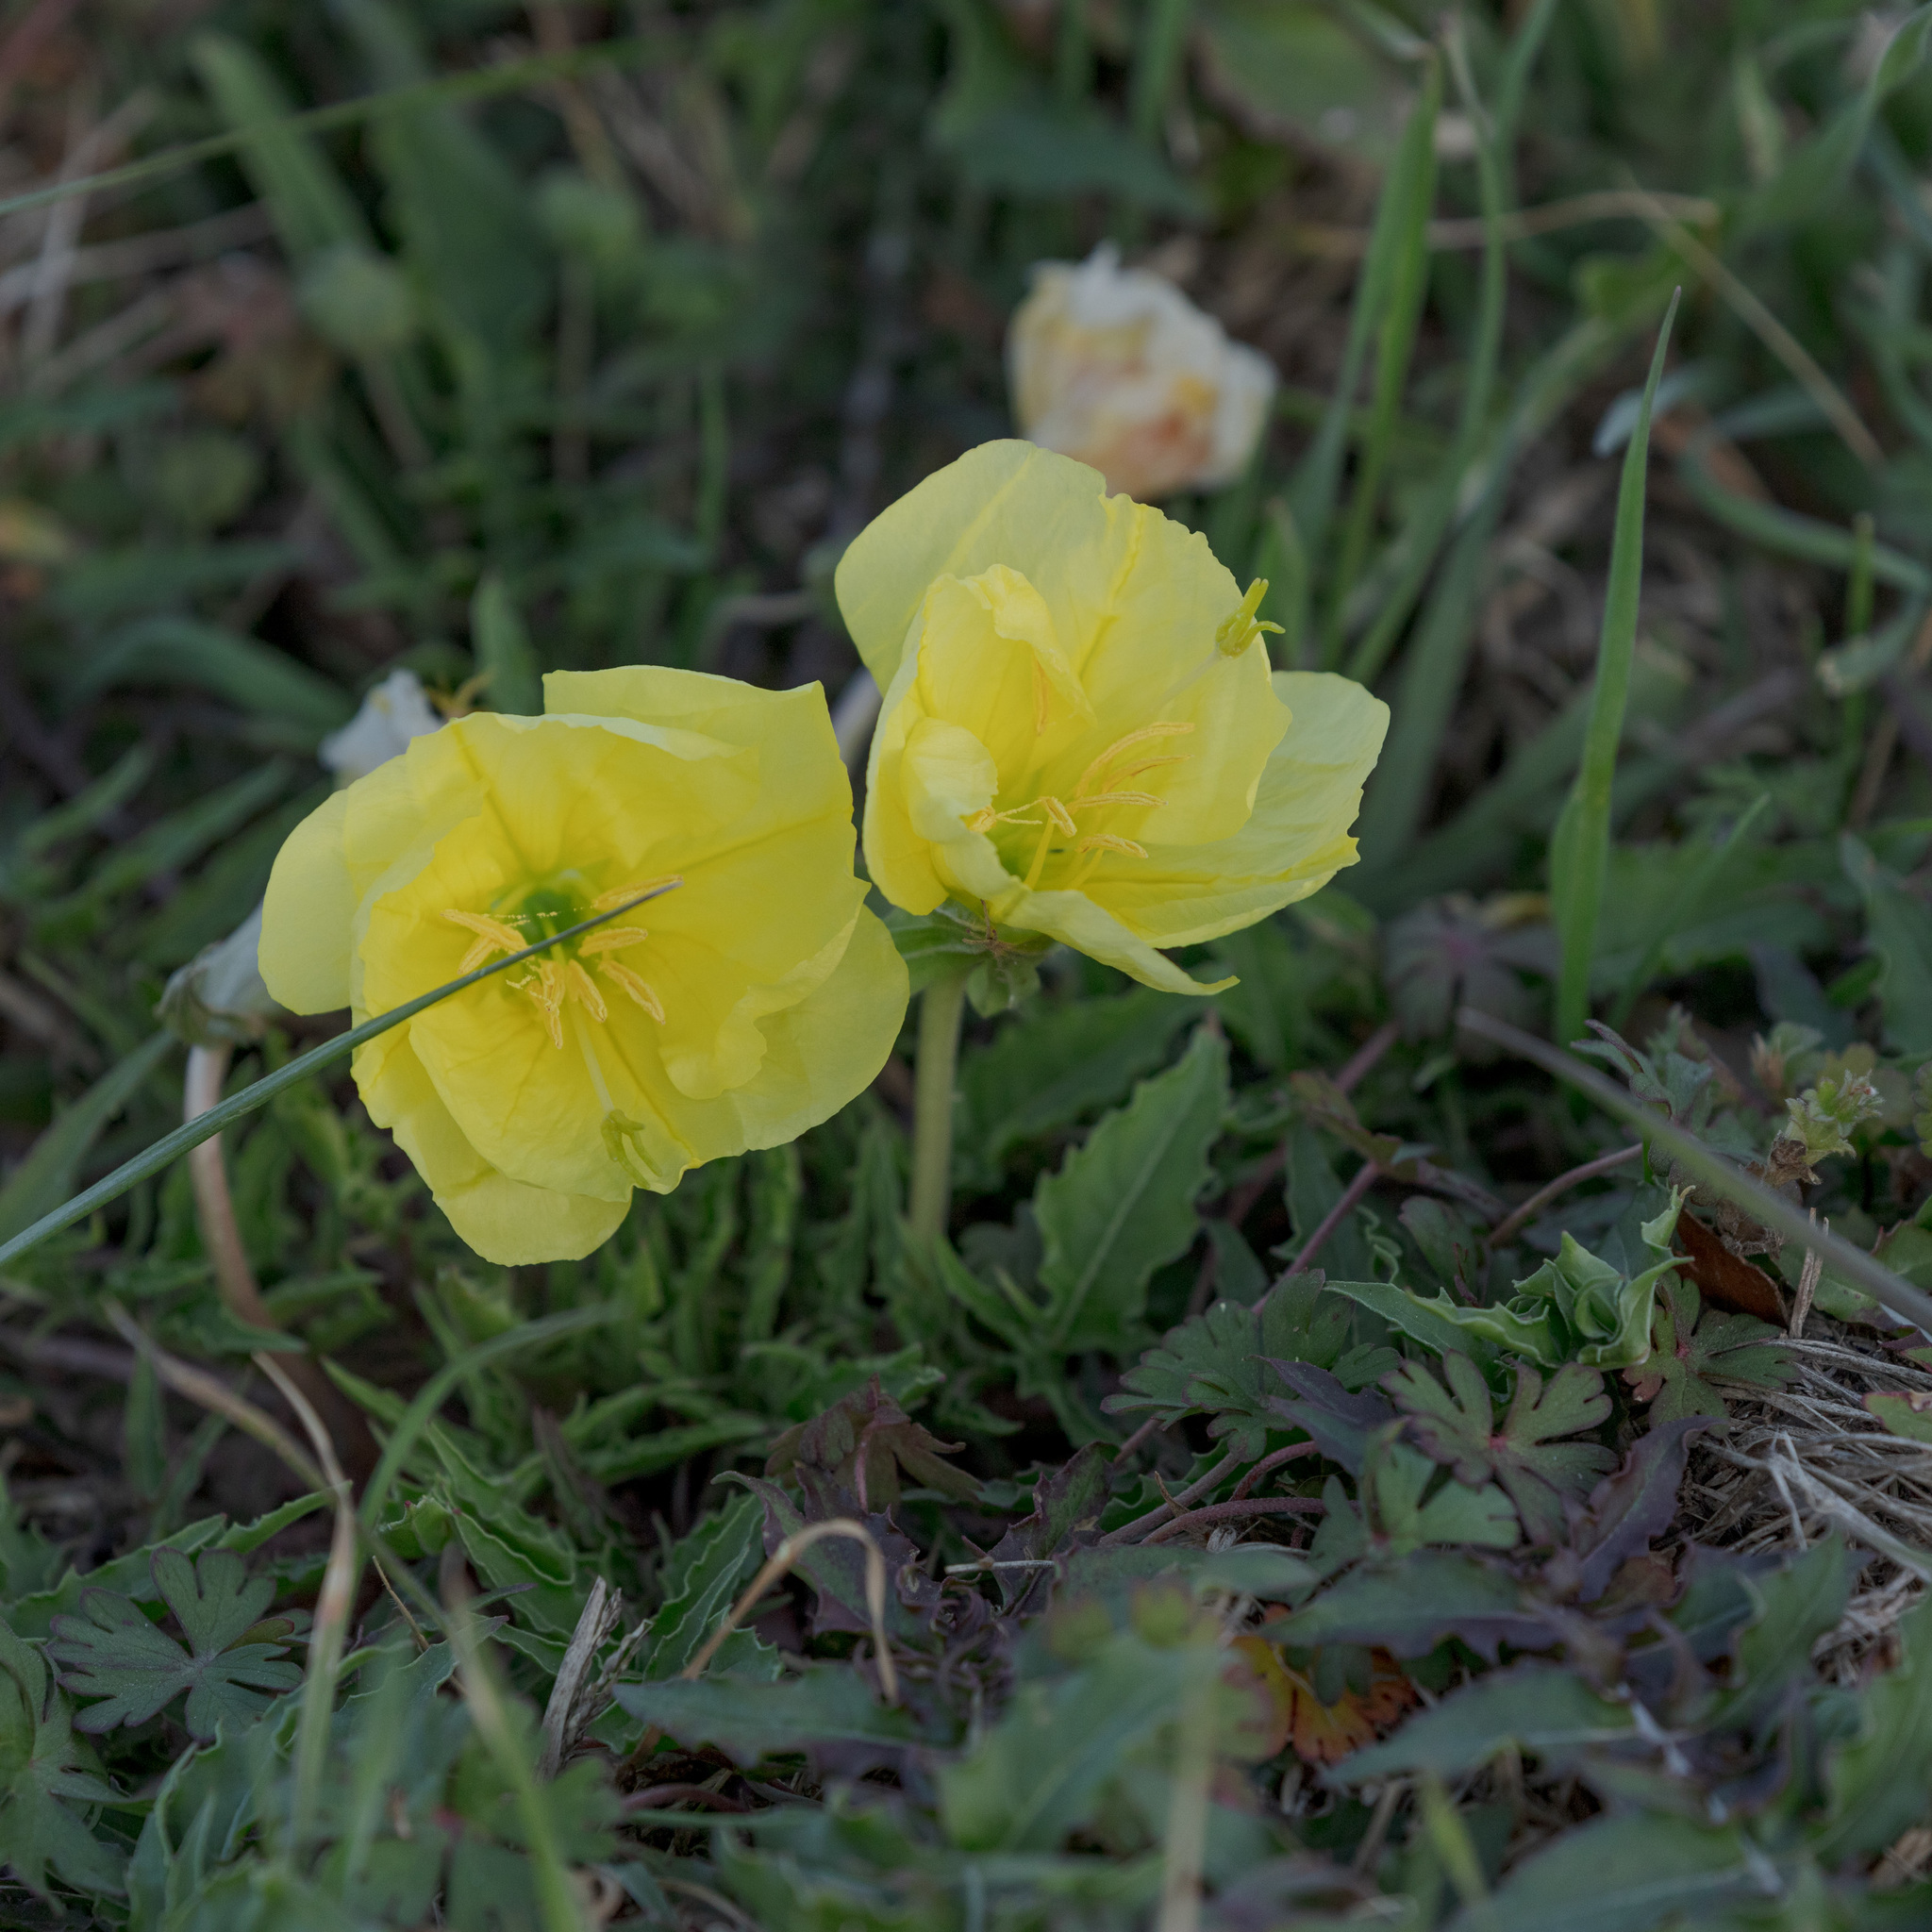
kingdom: Plantae
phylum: Tracheophyta
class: Magnoliopsida
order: Myrtales
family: Onagraceae
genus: Oenothera
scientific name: Oenothera triloba
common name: Sessile evening-primrose
